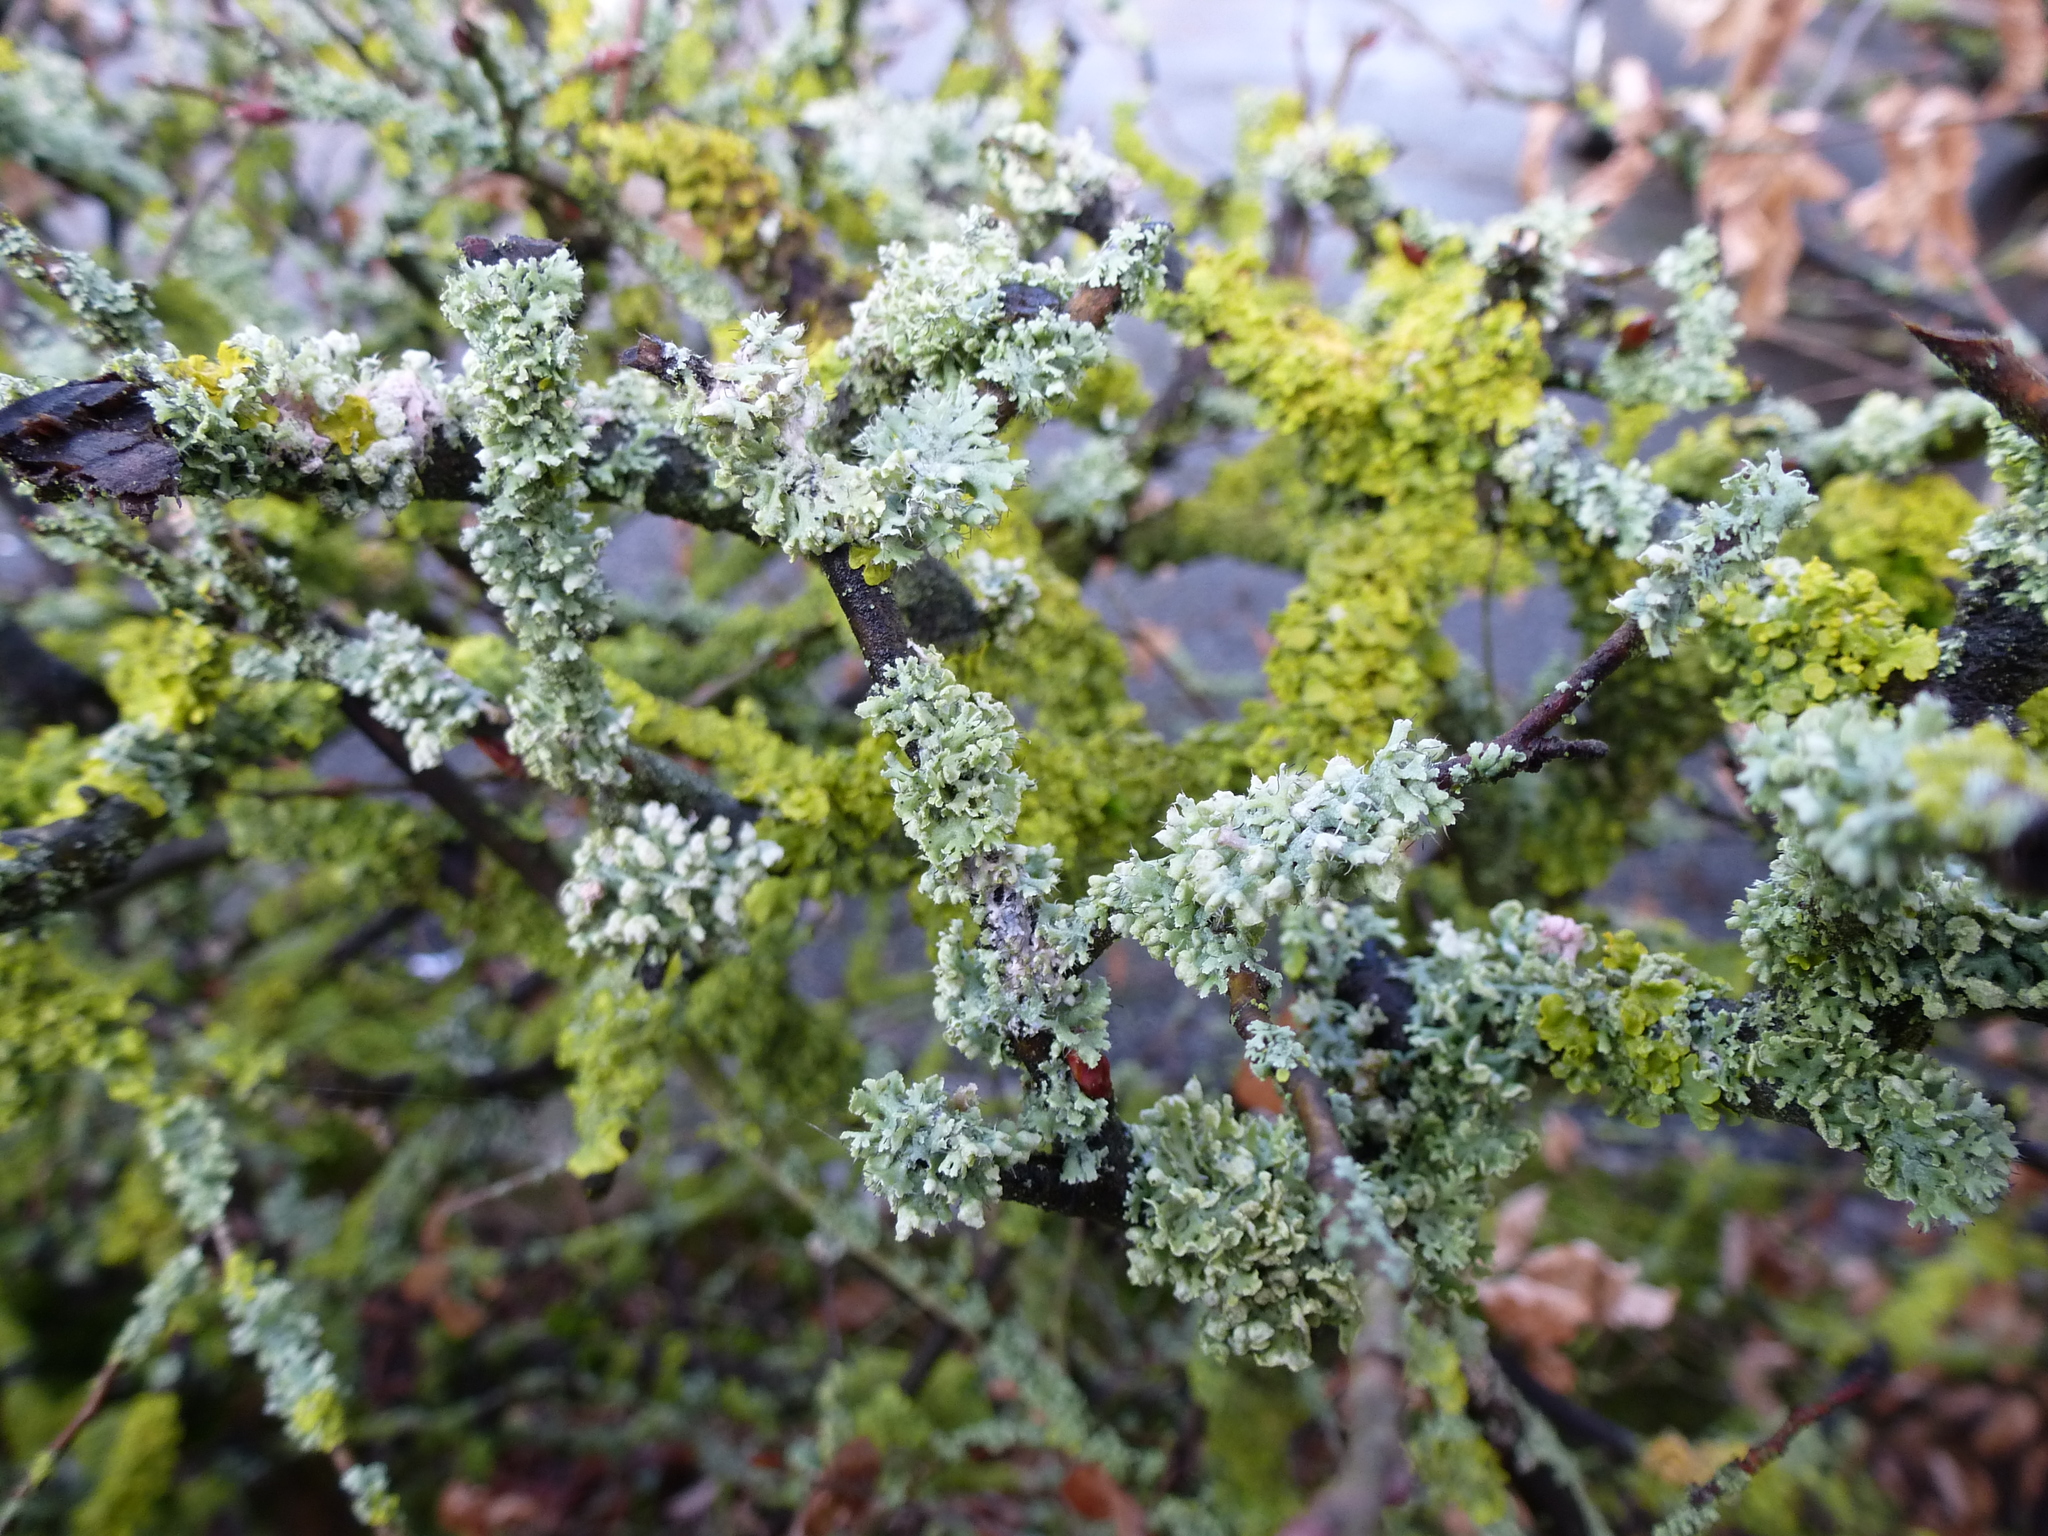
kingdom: Fungi
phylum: Ascomycota
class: Lecanoromycetes
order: Caliciales
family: Physciaceae
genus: Physcia
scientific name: Physcia adscendens
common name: Hooded rosette lichen
